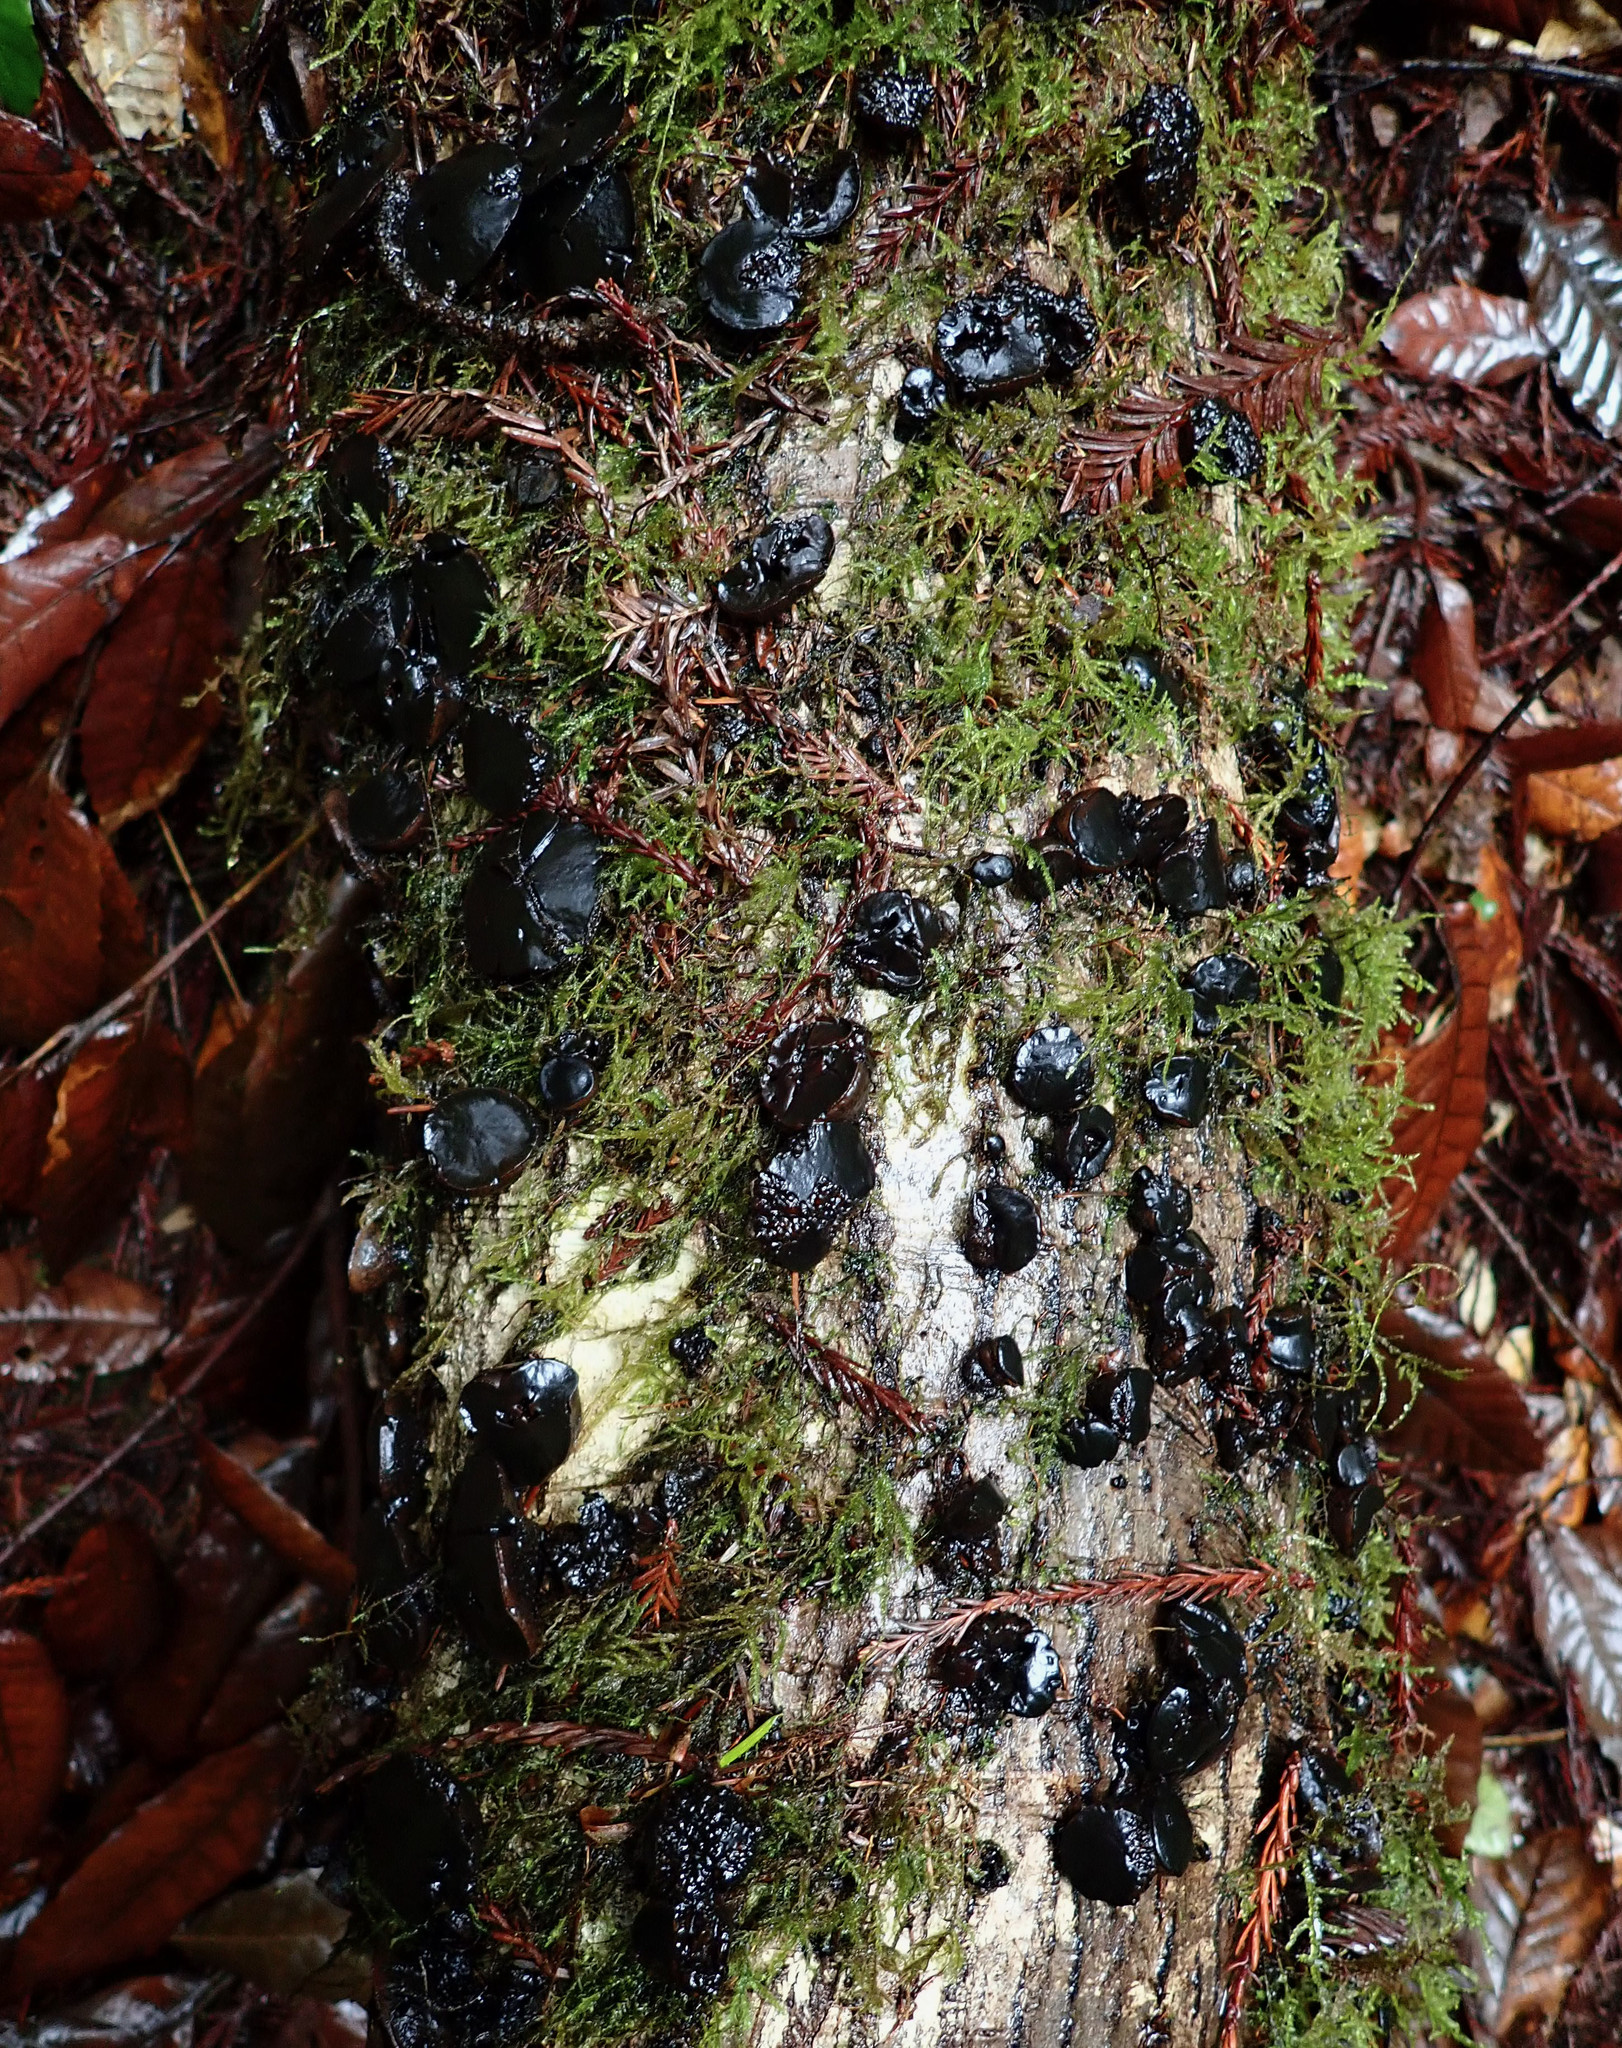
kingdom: Fungi
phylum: Basidiomycota
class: Agaricomycetes
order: Auriculariales
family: Auriculariaceae
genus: Exidia
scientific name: Exidia glandulosa
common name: Witches' butter
